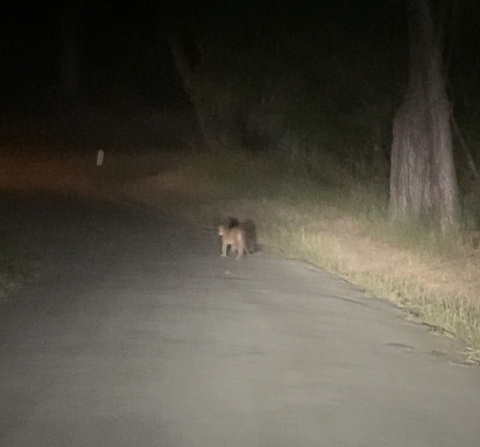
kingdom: Animalia
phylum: Chordata
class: Mammalia
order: Carnivora
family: Felidae
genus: Puma
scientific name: Puma concolor
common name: Puma
